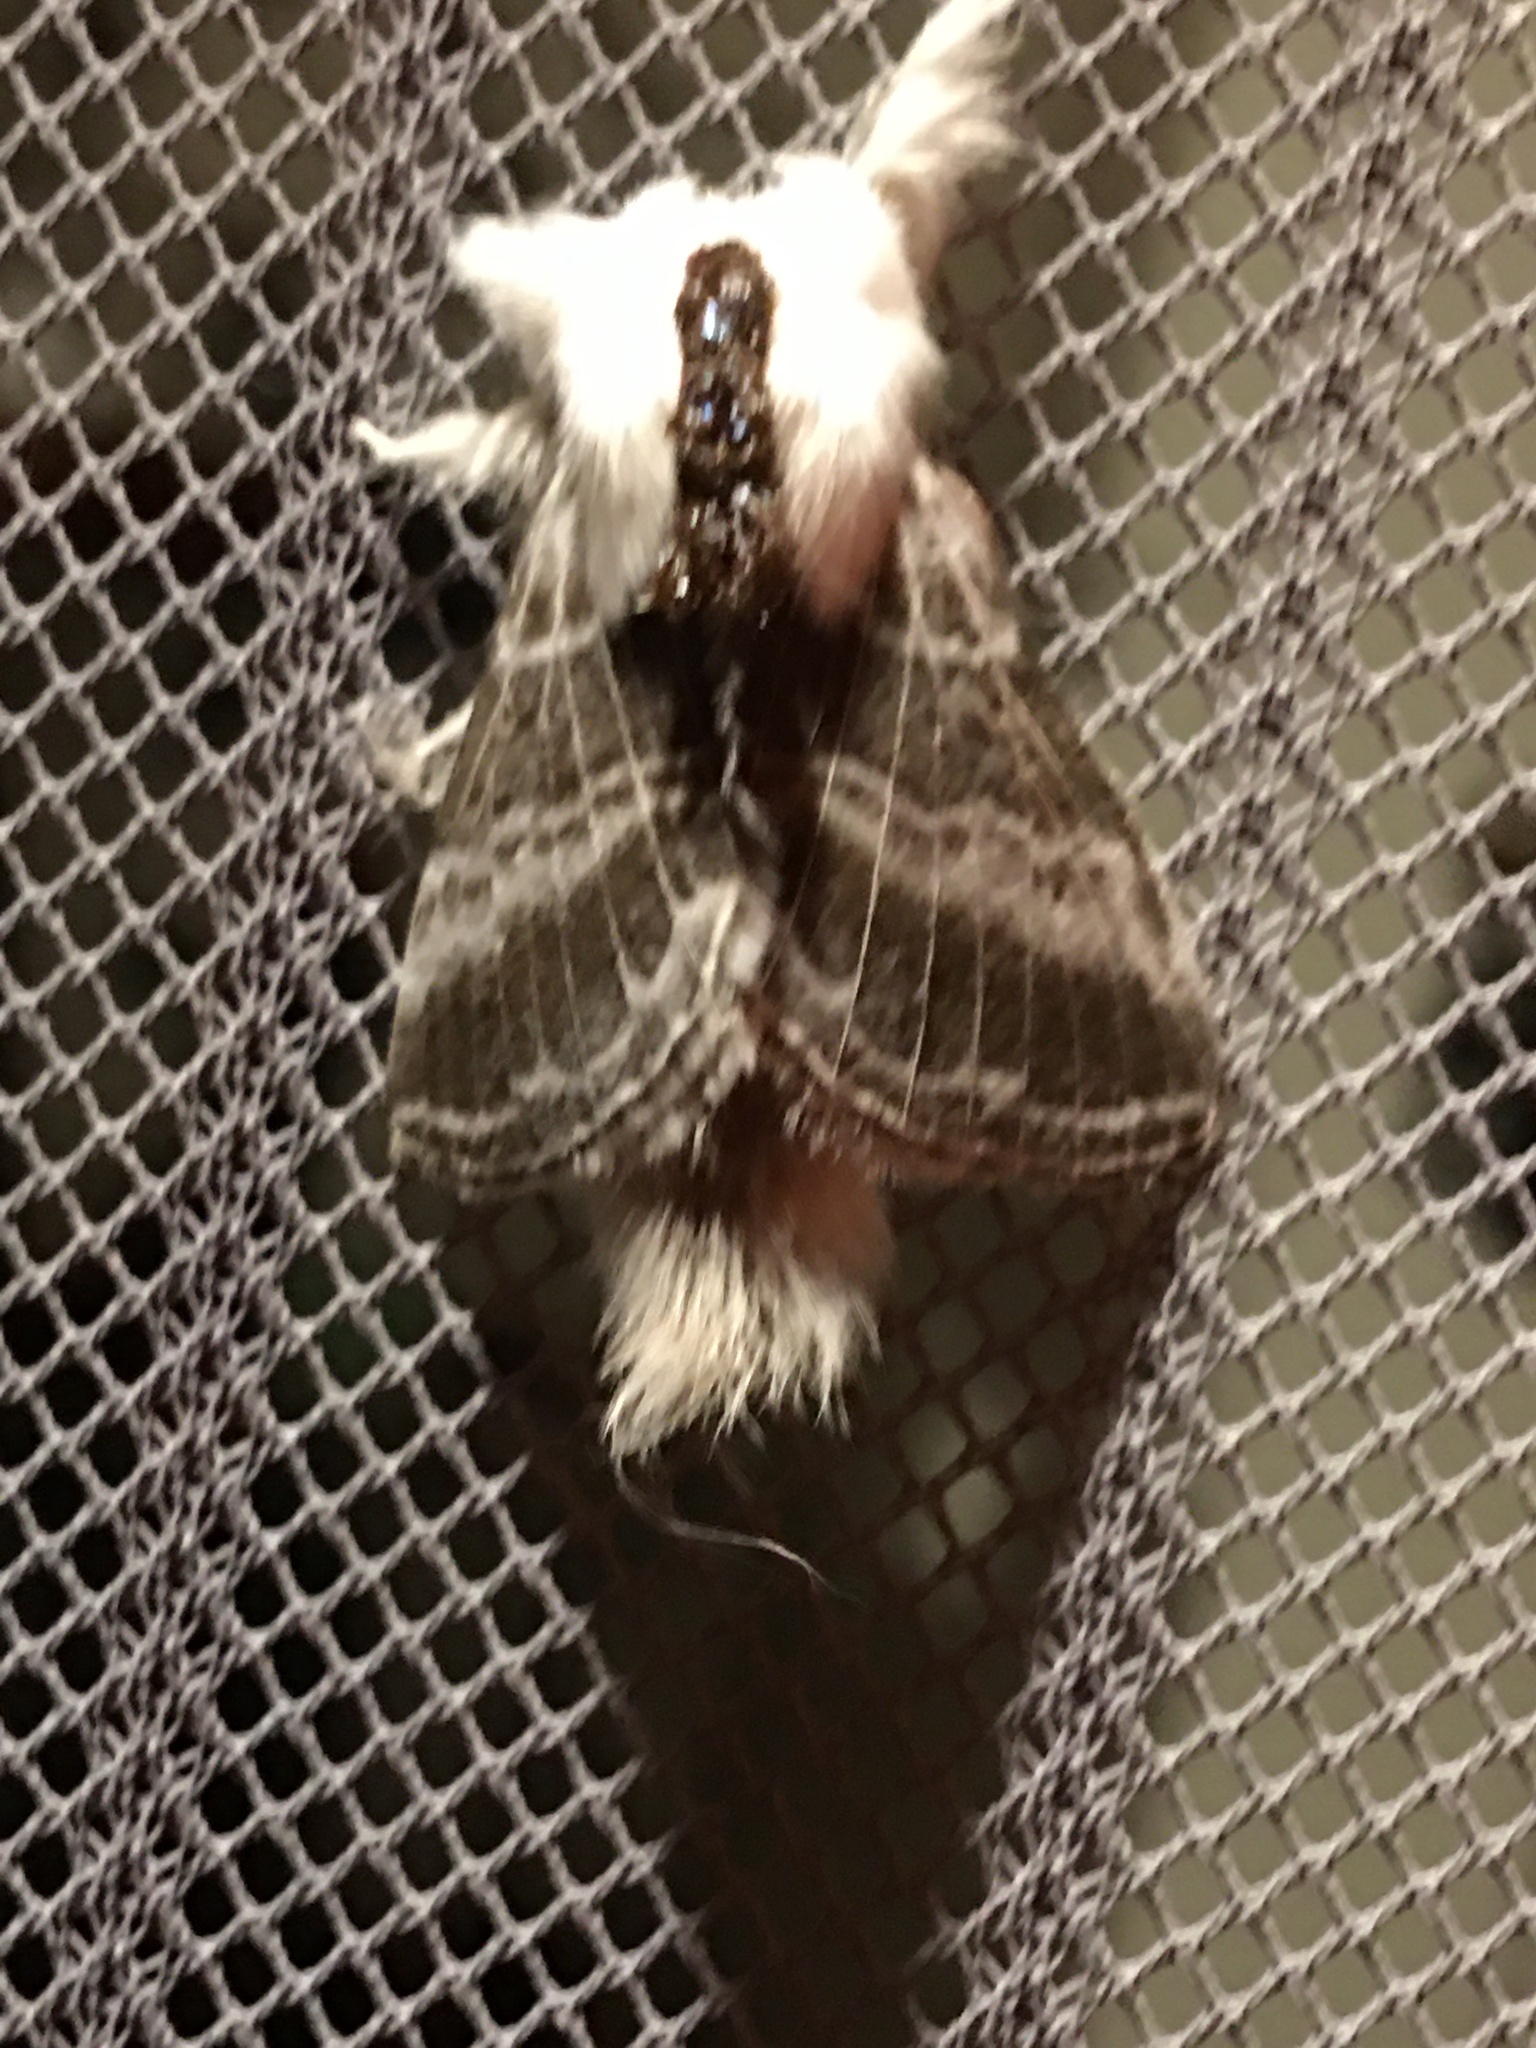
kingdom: Animalia
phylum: Arthropoda
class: Insecta
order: Lepidoptera
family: Lasiocampidae
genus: Tolype
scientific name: Tolype velleda
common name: Large tolype moth
